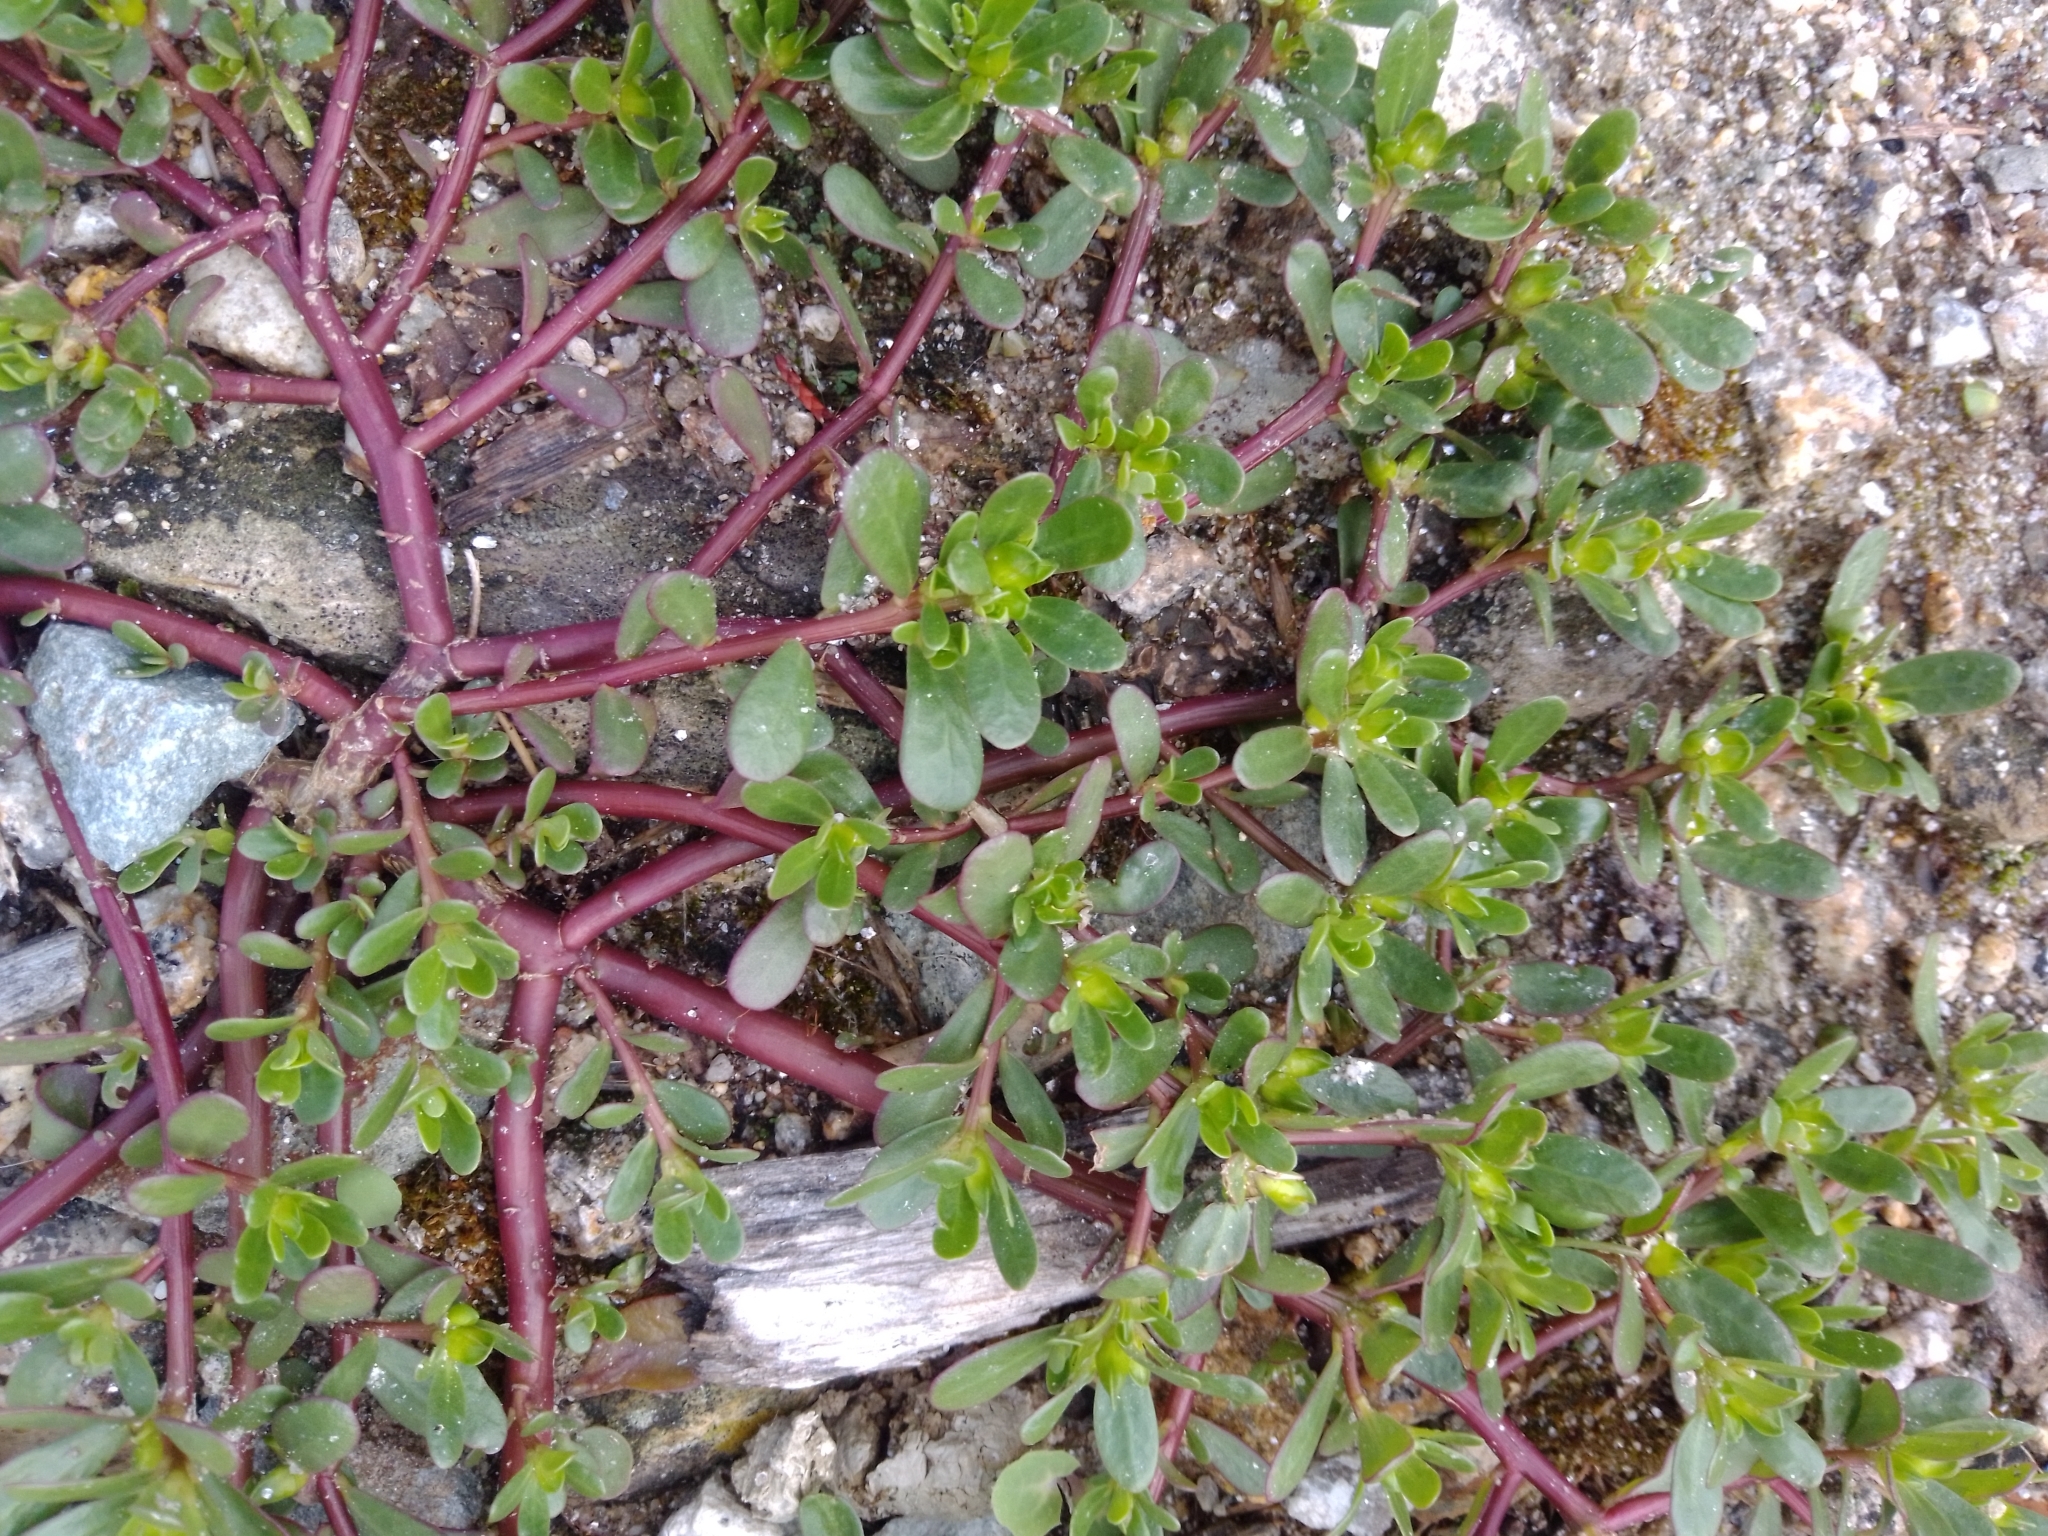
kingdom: Plantae
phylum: Tracheophyta
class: Magnoliopsida
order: Caryophyllales
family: Portulacaceae
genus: Portulaca
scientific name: Portulaca oleracea
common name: Common purslane
